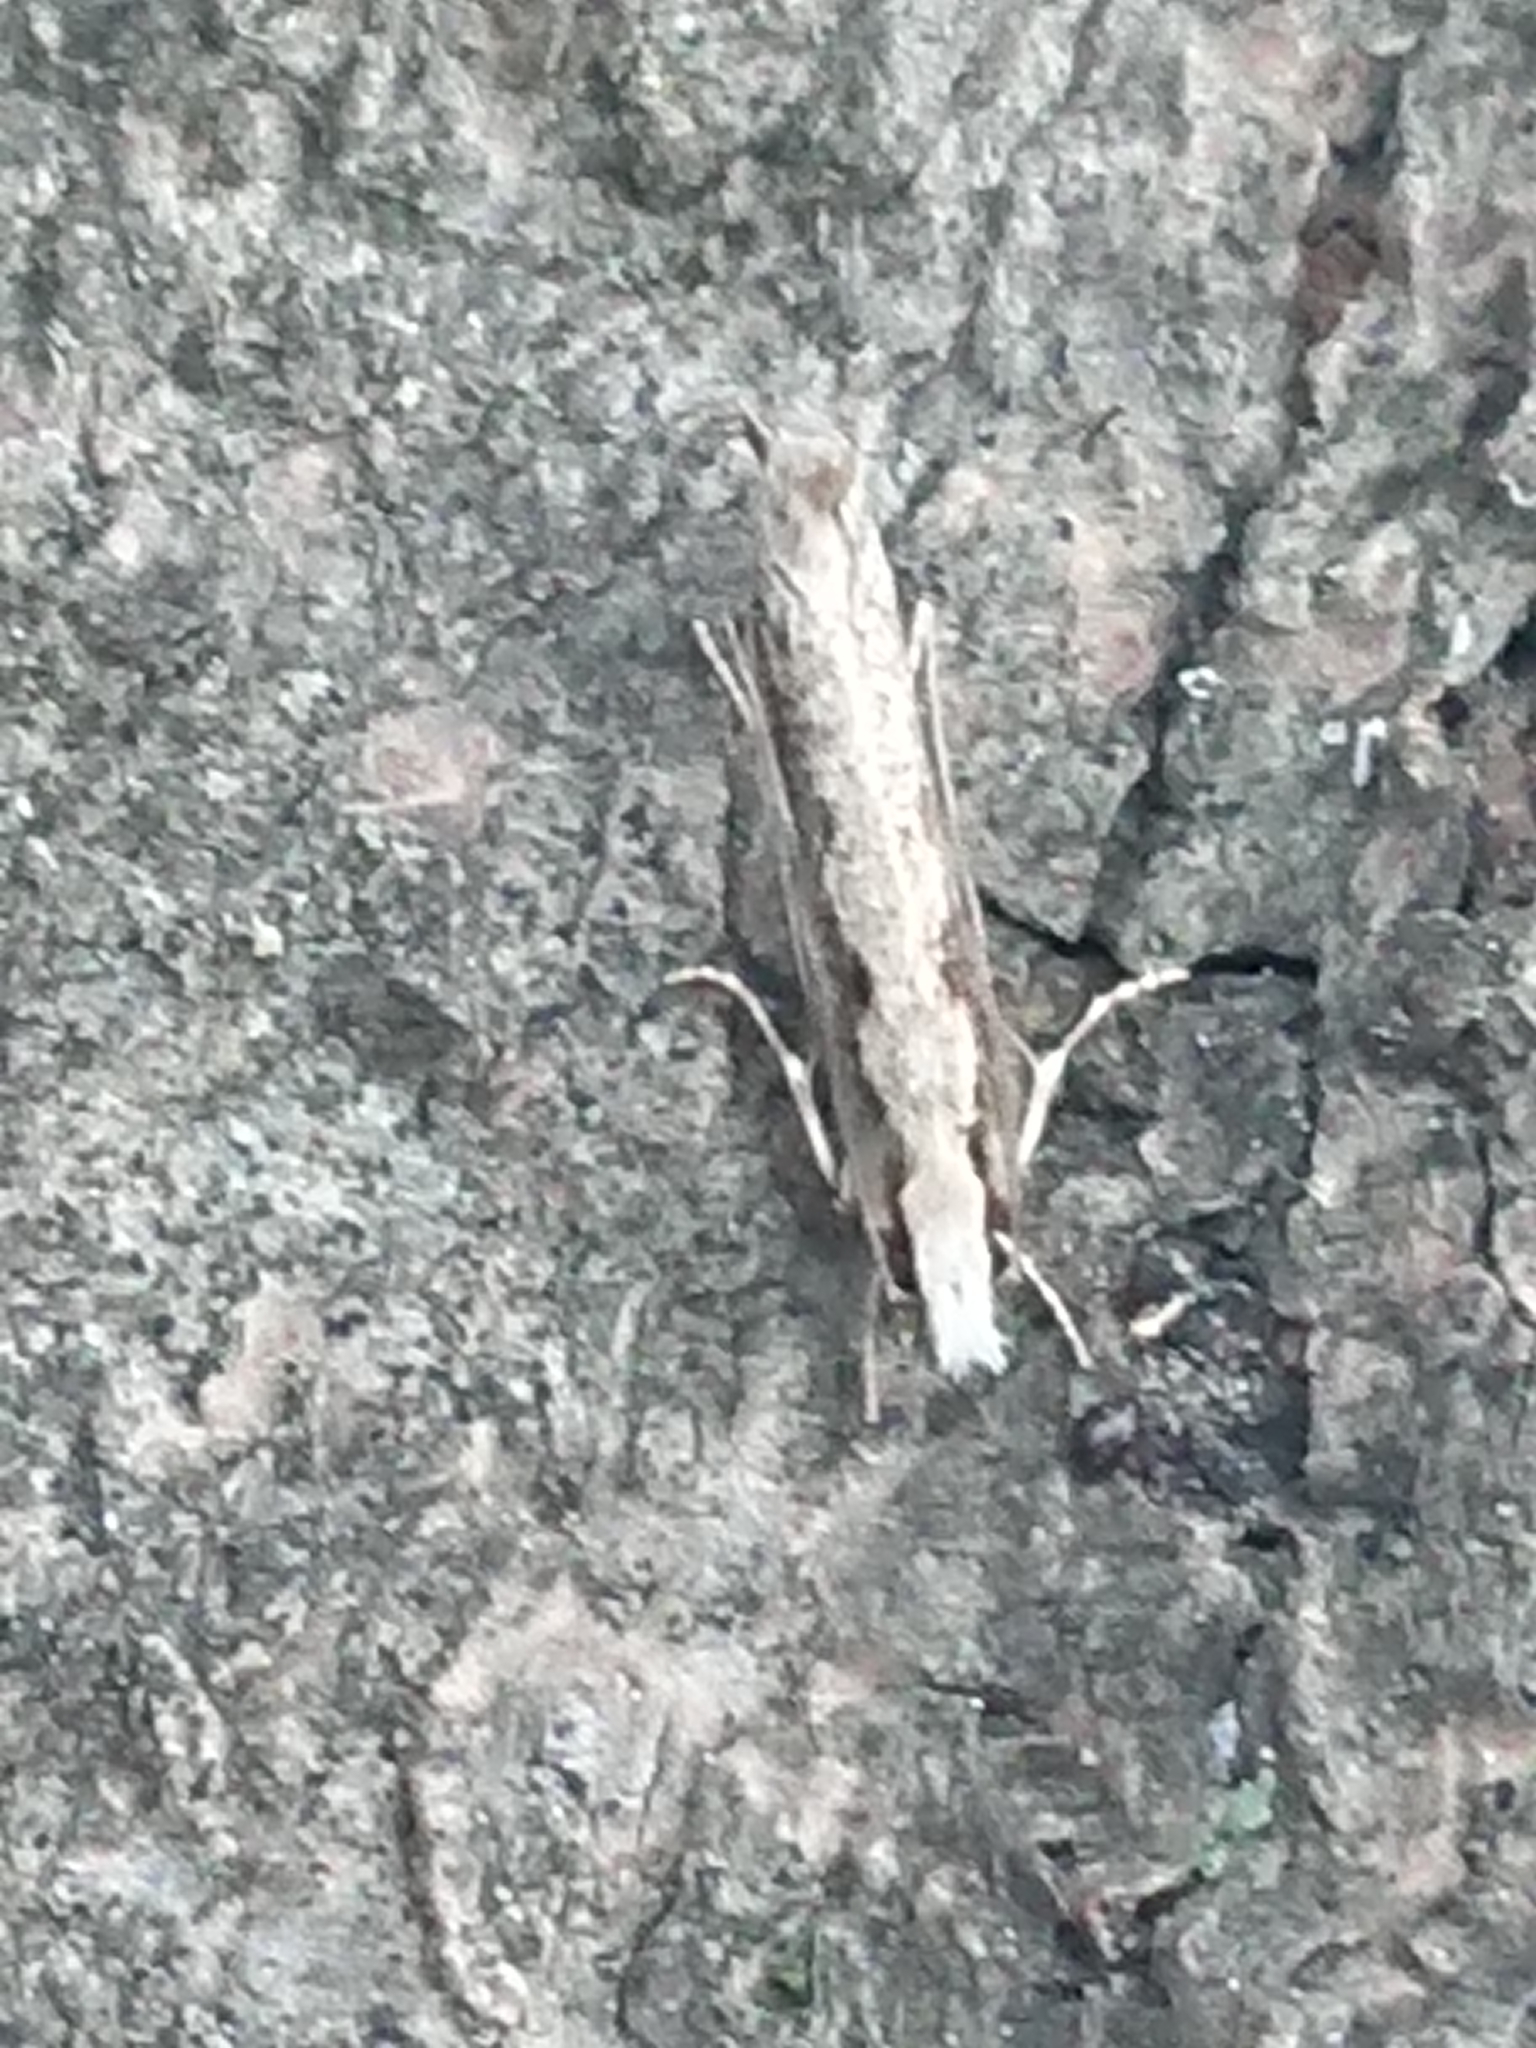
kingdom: Animalia
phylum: Arthropoda
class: Insecta
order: Lepidoptera
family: Tineidae
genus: Erechthias
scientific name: Erechthias fulguritella
